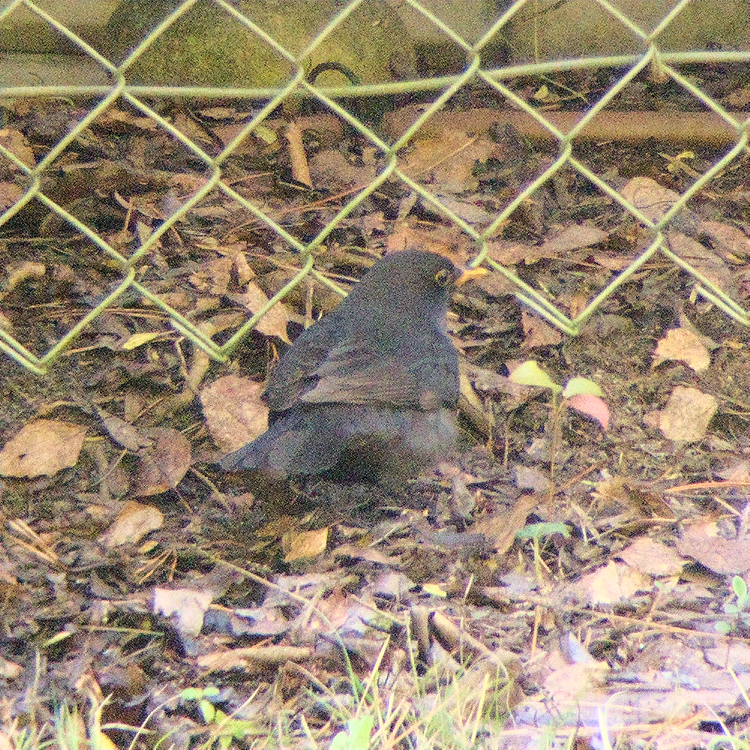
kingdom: Animalia
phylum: Chordata
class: Aves
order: Passeriformes
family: Turdidae
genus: Turdus
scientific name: Turdus merula
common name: Common blackbird
